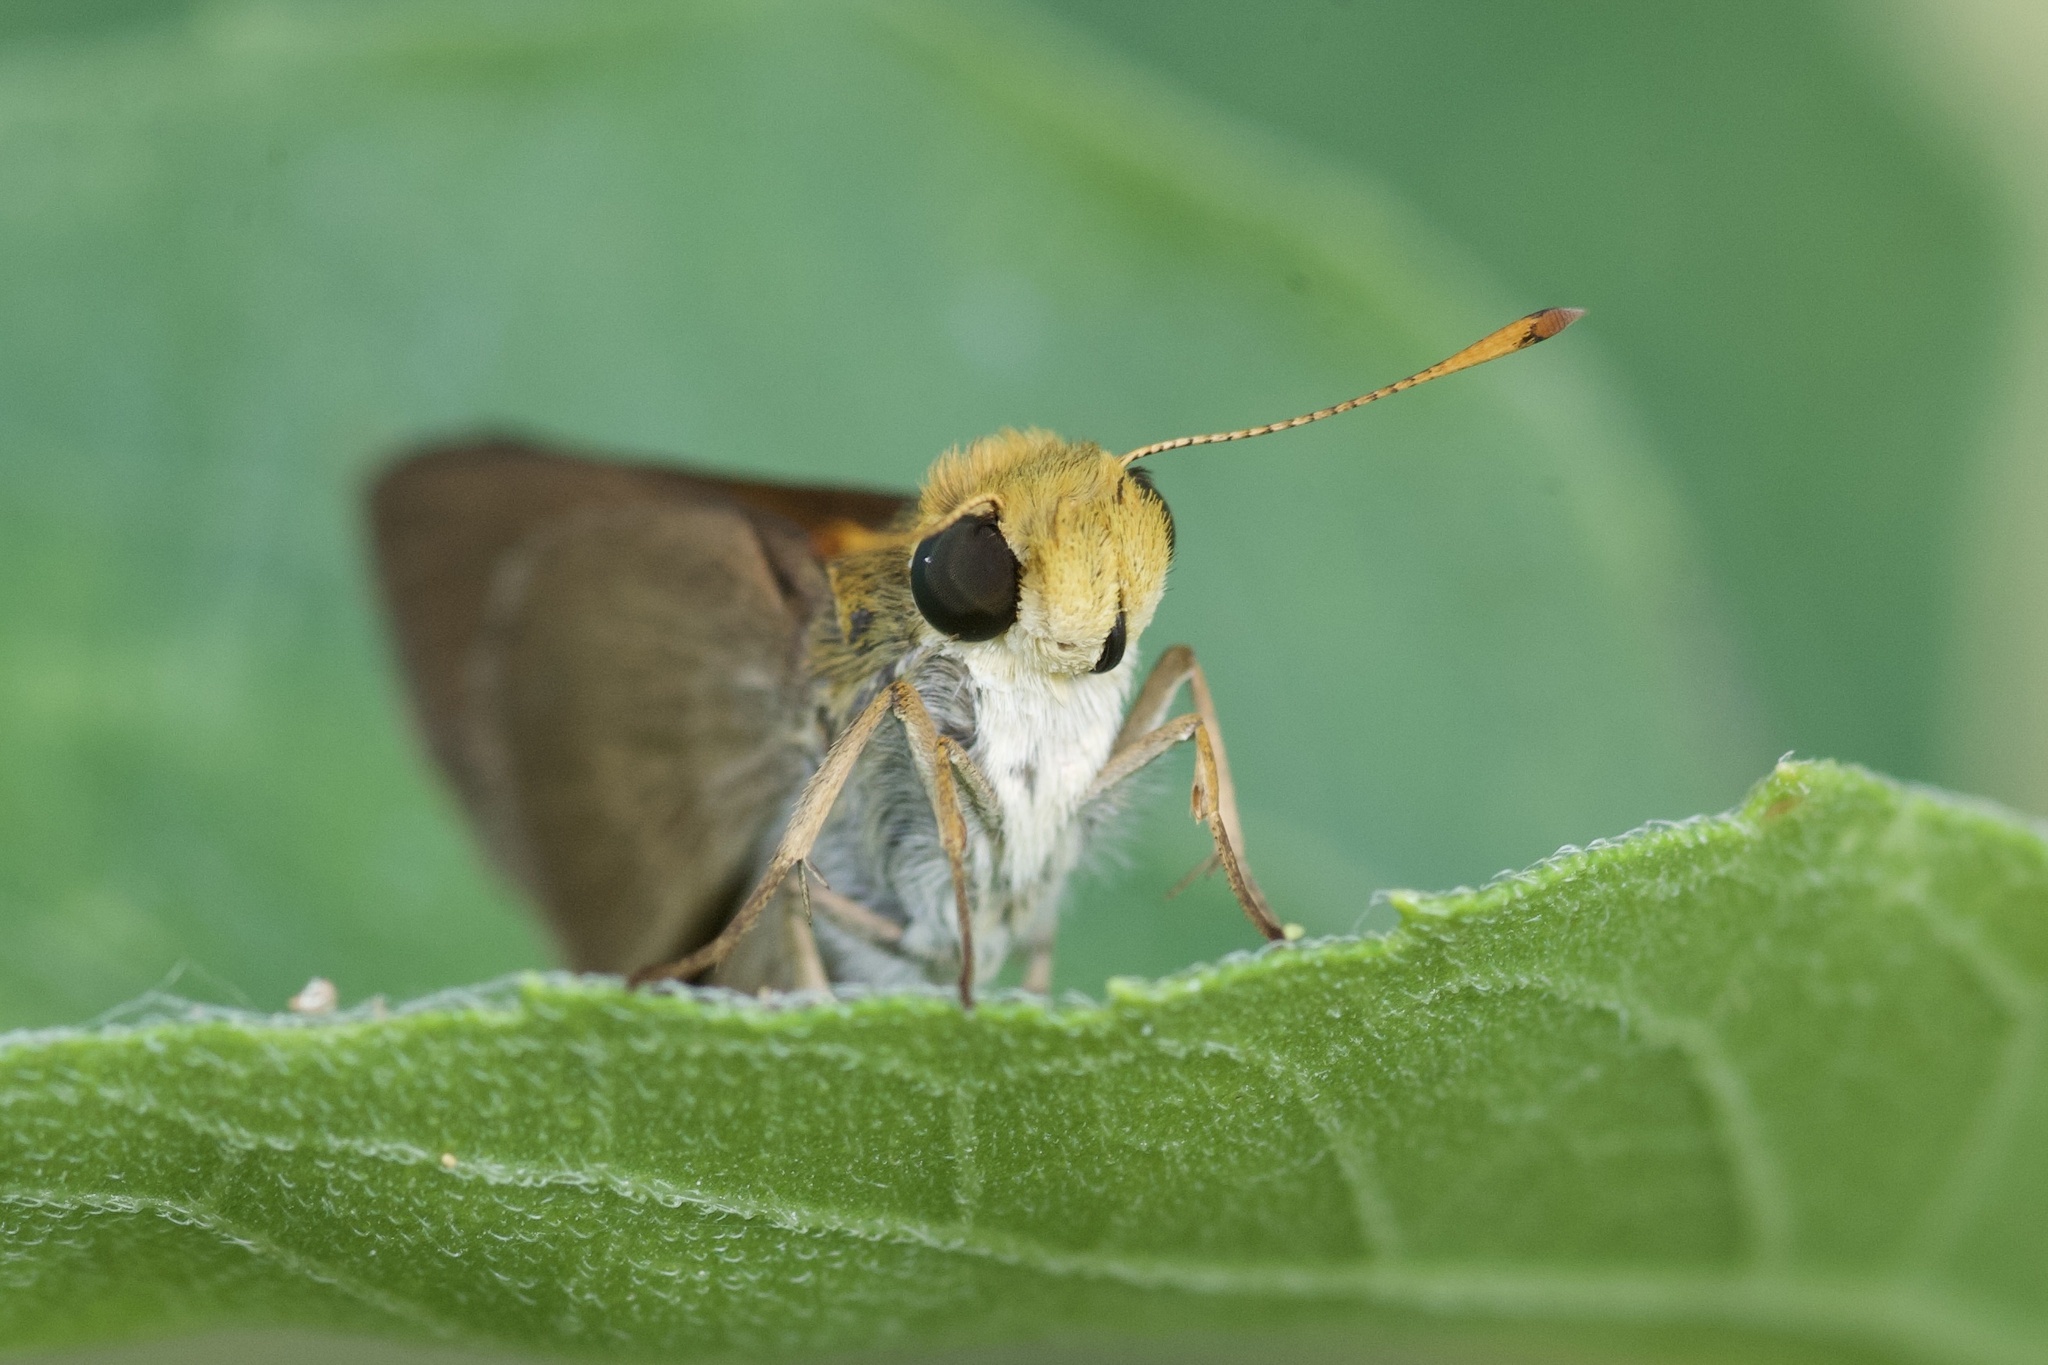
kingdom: Animalia
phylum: Arthropoda
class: Insecta
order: Lepidoptera
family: Hesperiidae
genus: Euphyes
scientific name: Euphyes vestris
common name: Dun skipper
